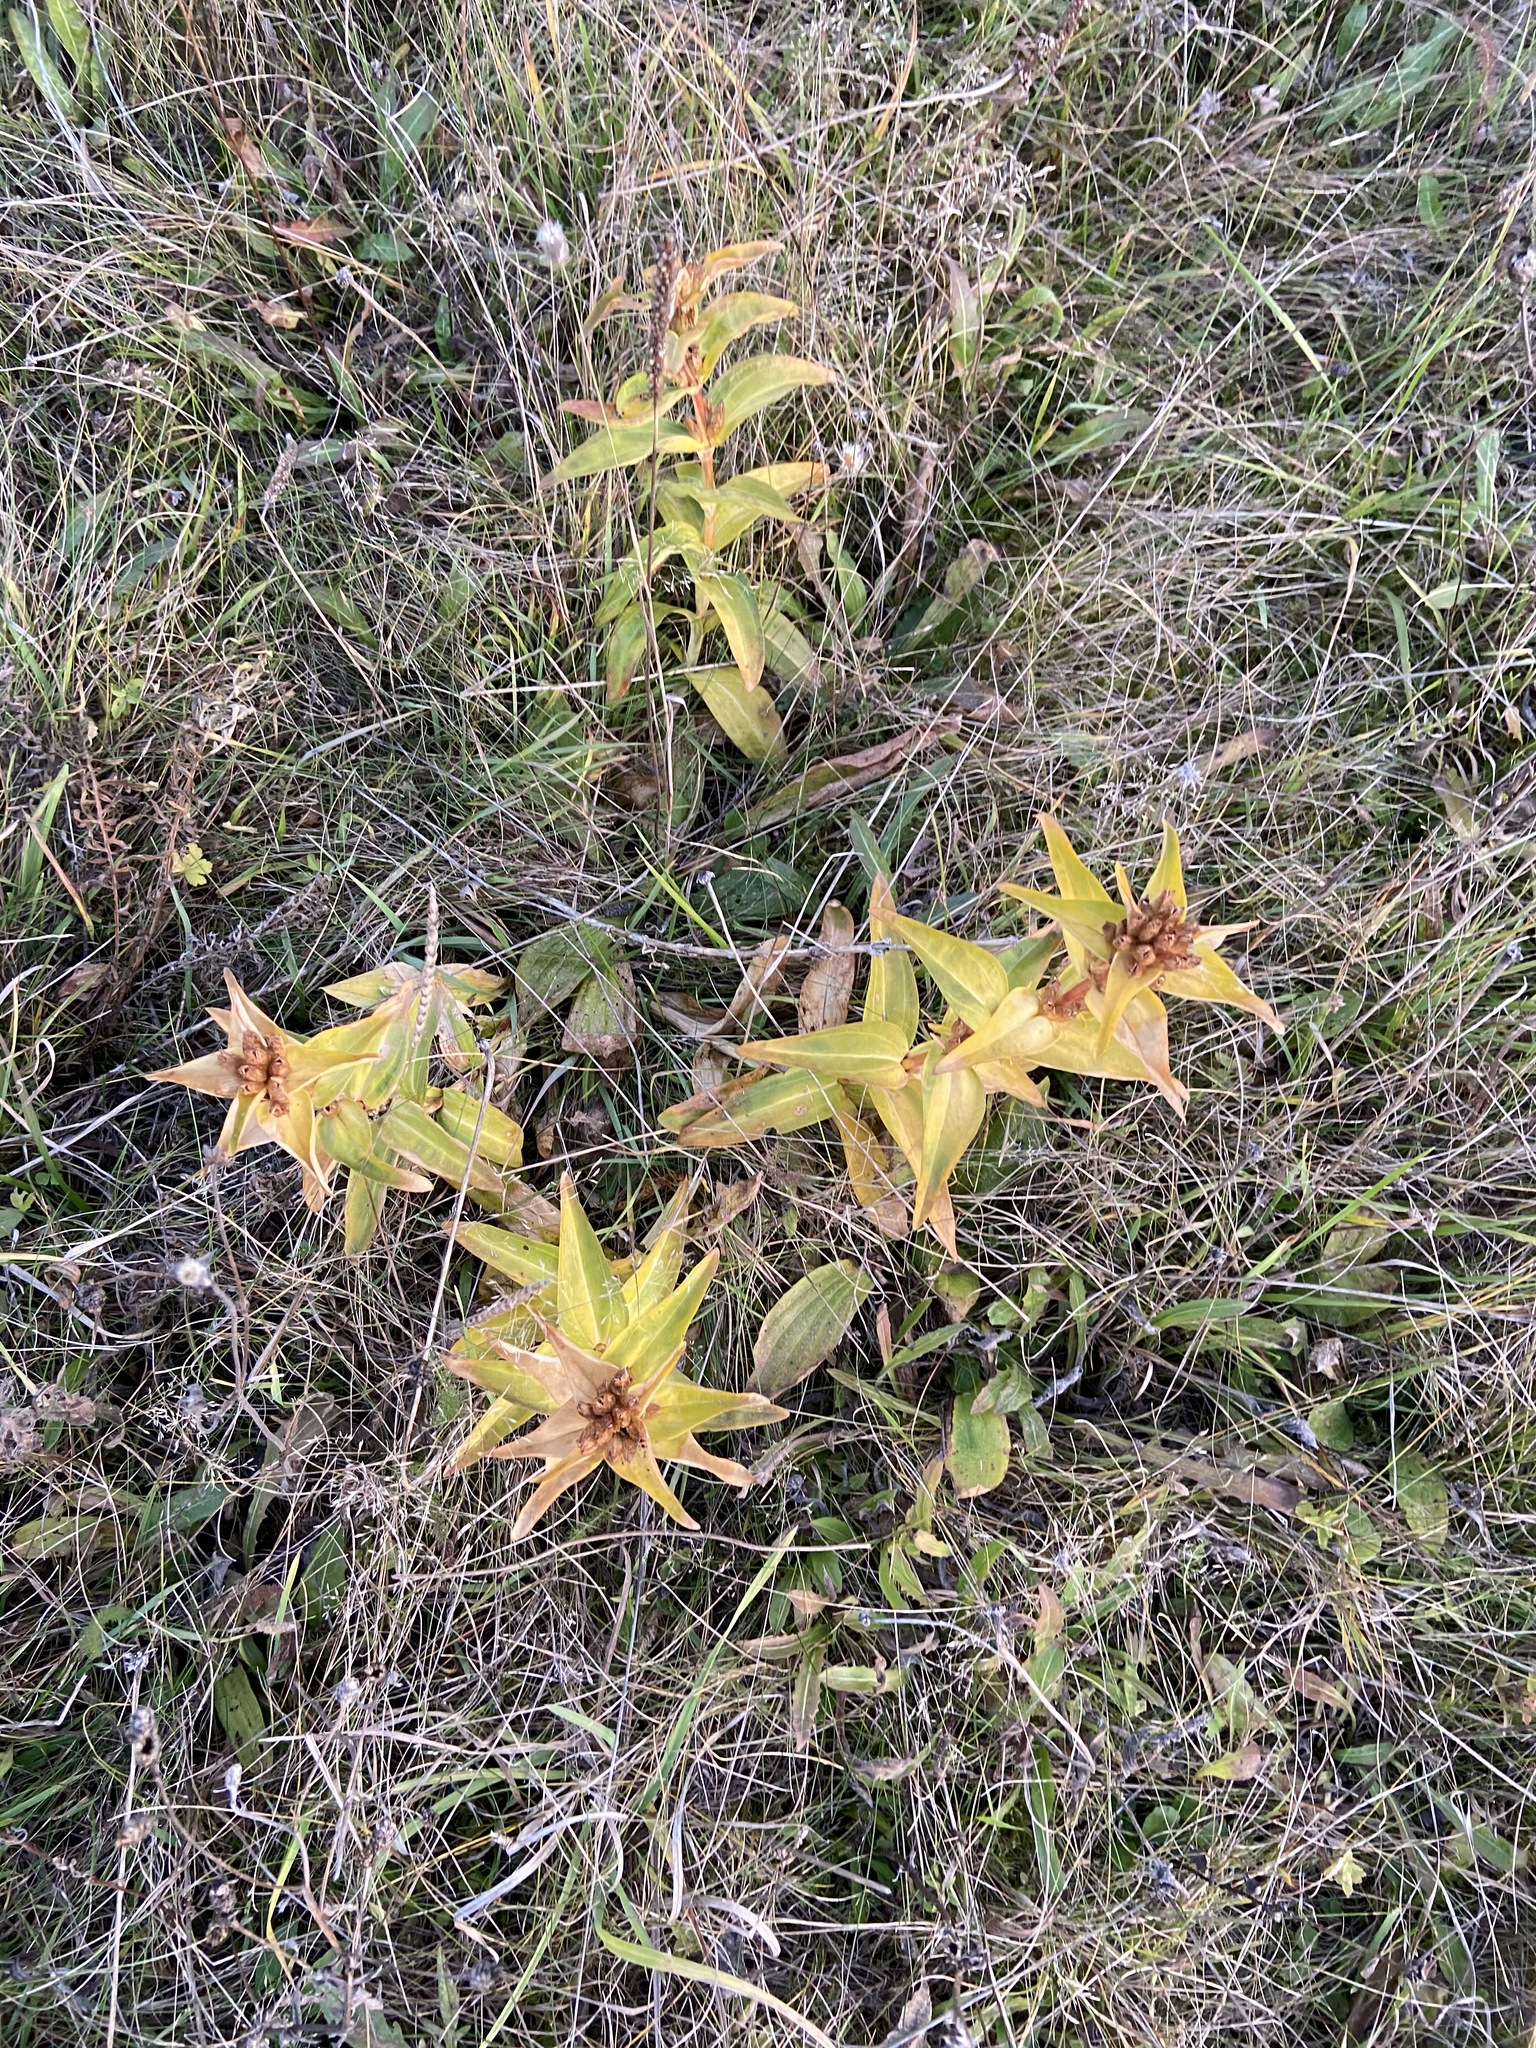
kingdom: Plantae
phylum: Tracheophyta
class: Magnoliopsida
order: Gentianales
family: Gentianaceae
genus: Gentiana
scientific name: Gentiana cruciata
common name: Cross gentian
